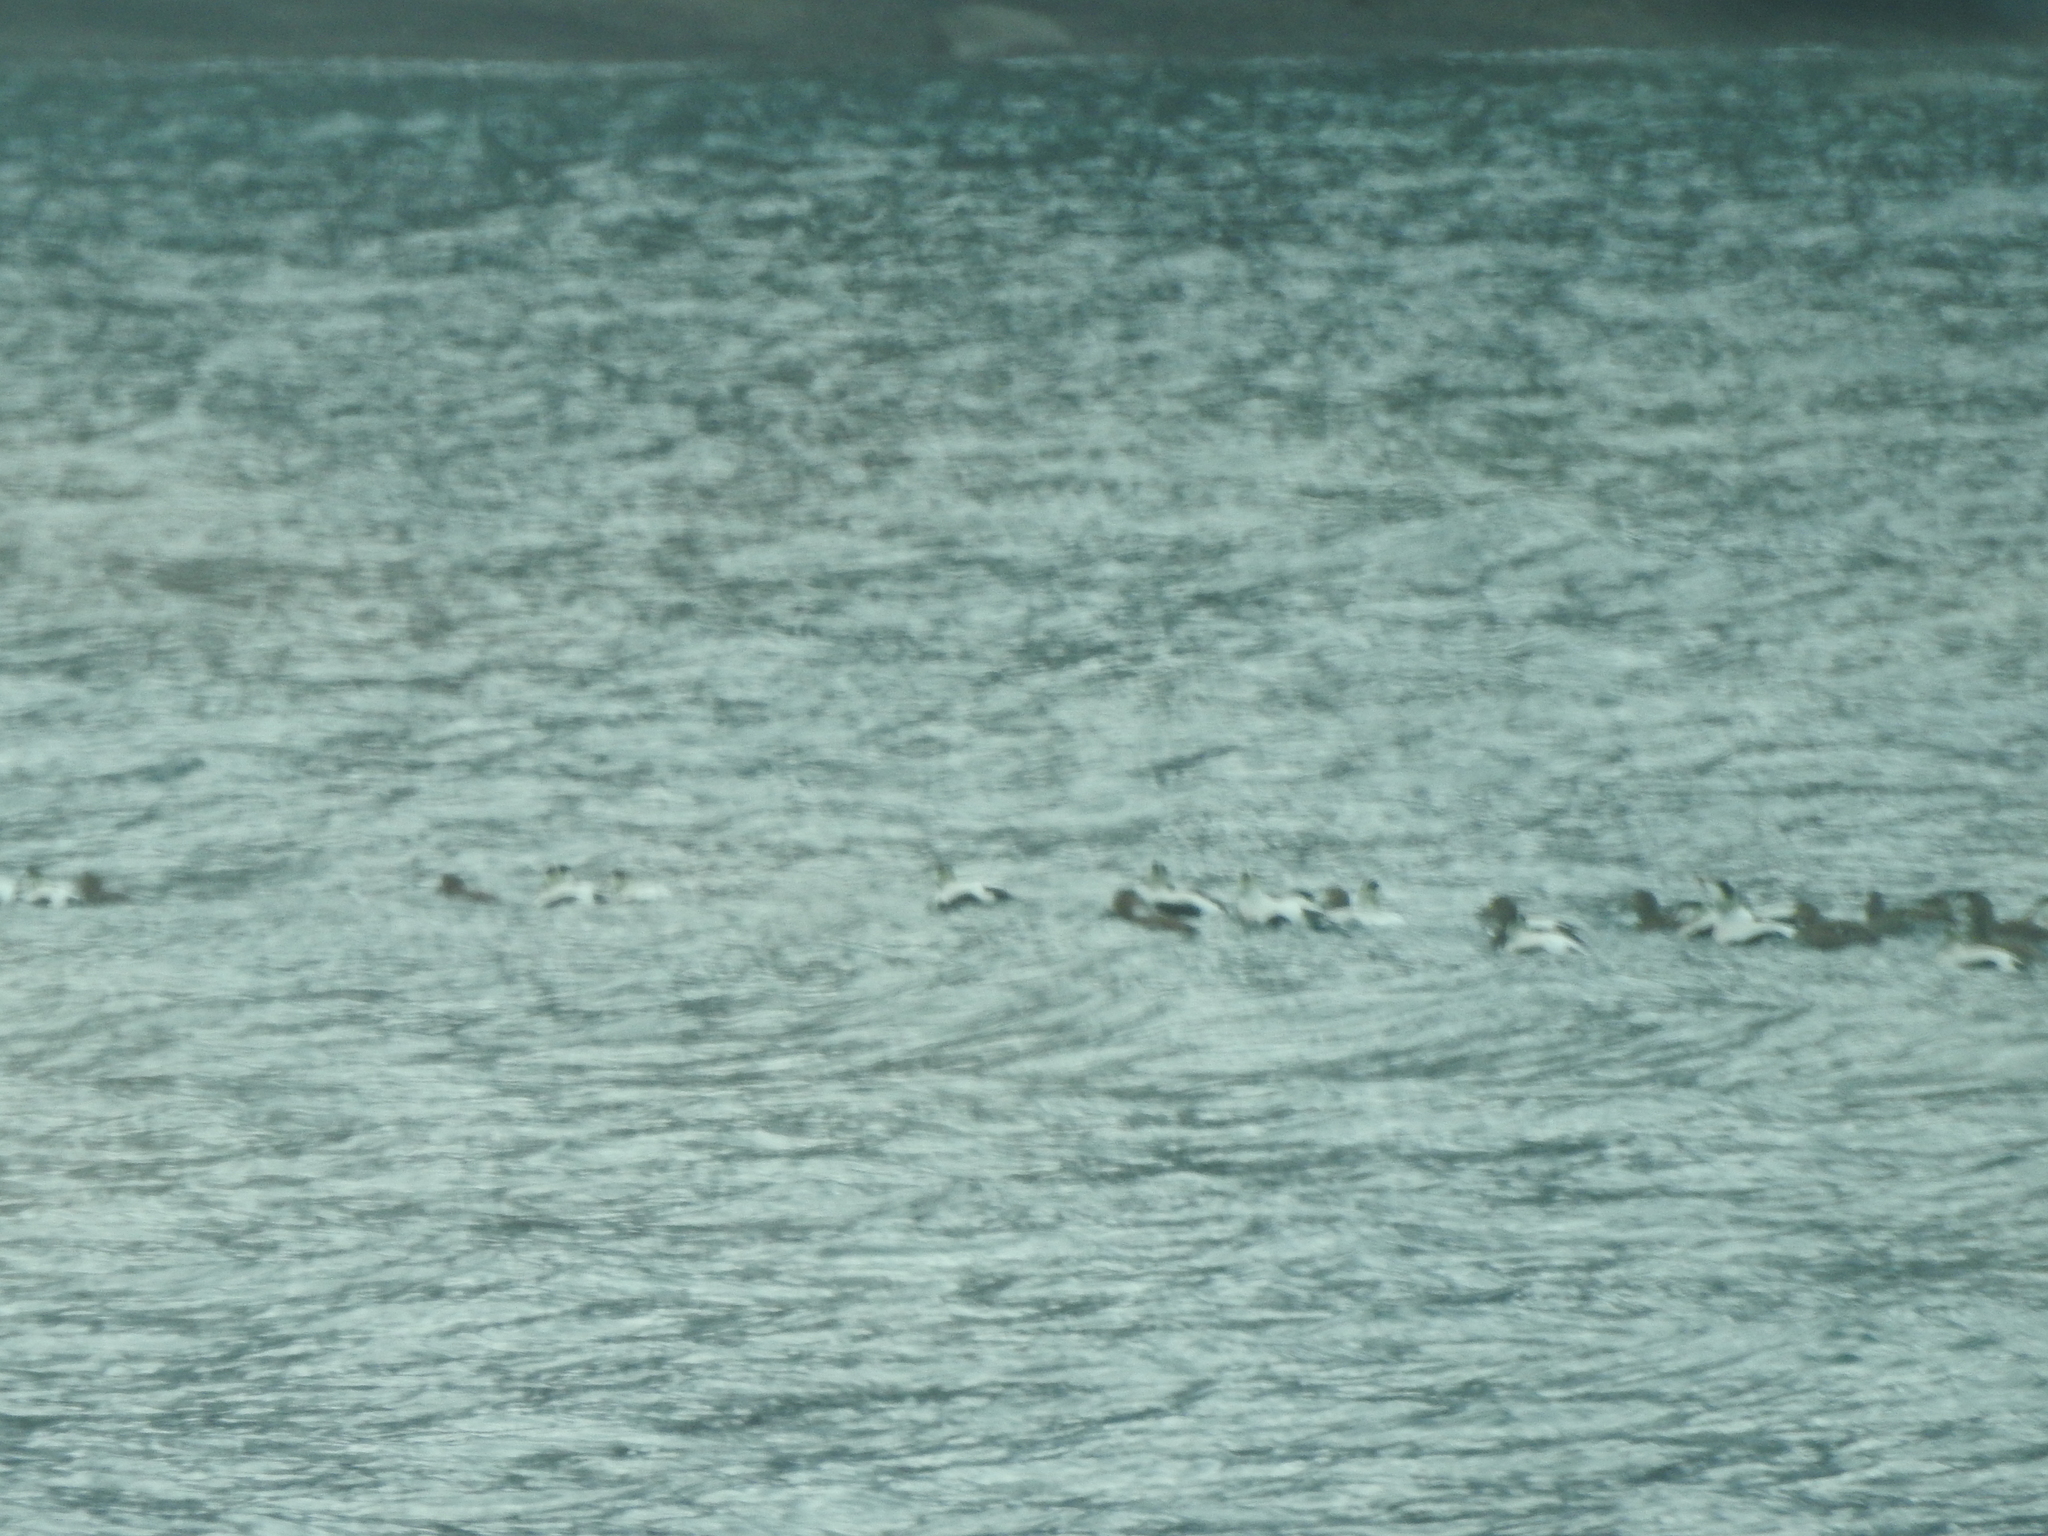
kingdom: Animalia
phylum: Chordata
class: Aves
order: Anseriformes
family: Anatidae
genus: Somateria
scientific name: Somateria mollissima
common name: Common eider
